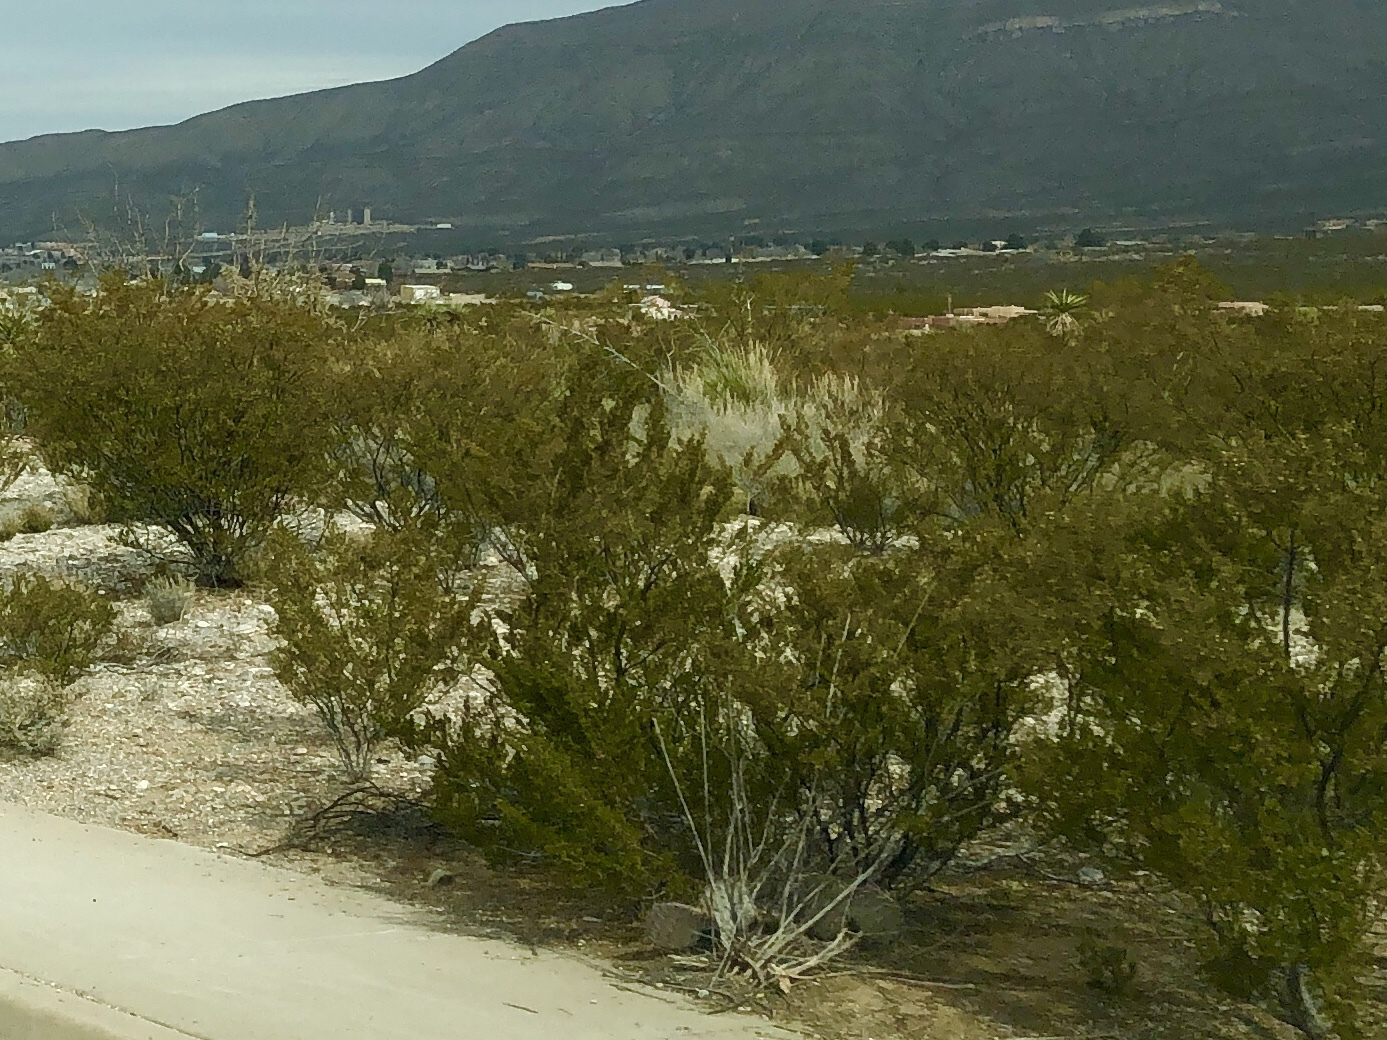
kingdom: Plantae
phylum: Tracheophyta
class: Magnoliopsida
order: Zygophyllales
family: Zygophyllaceae
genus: Larrea
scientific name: Larrea tridentata
